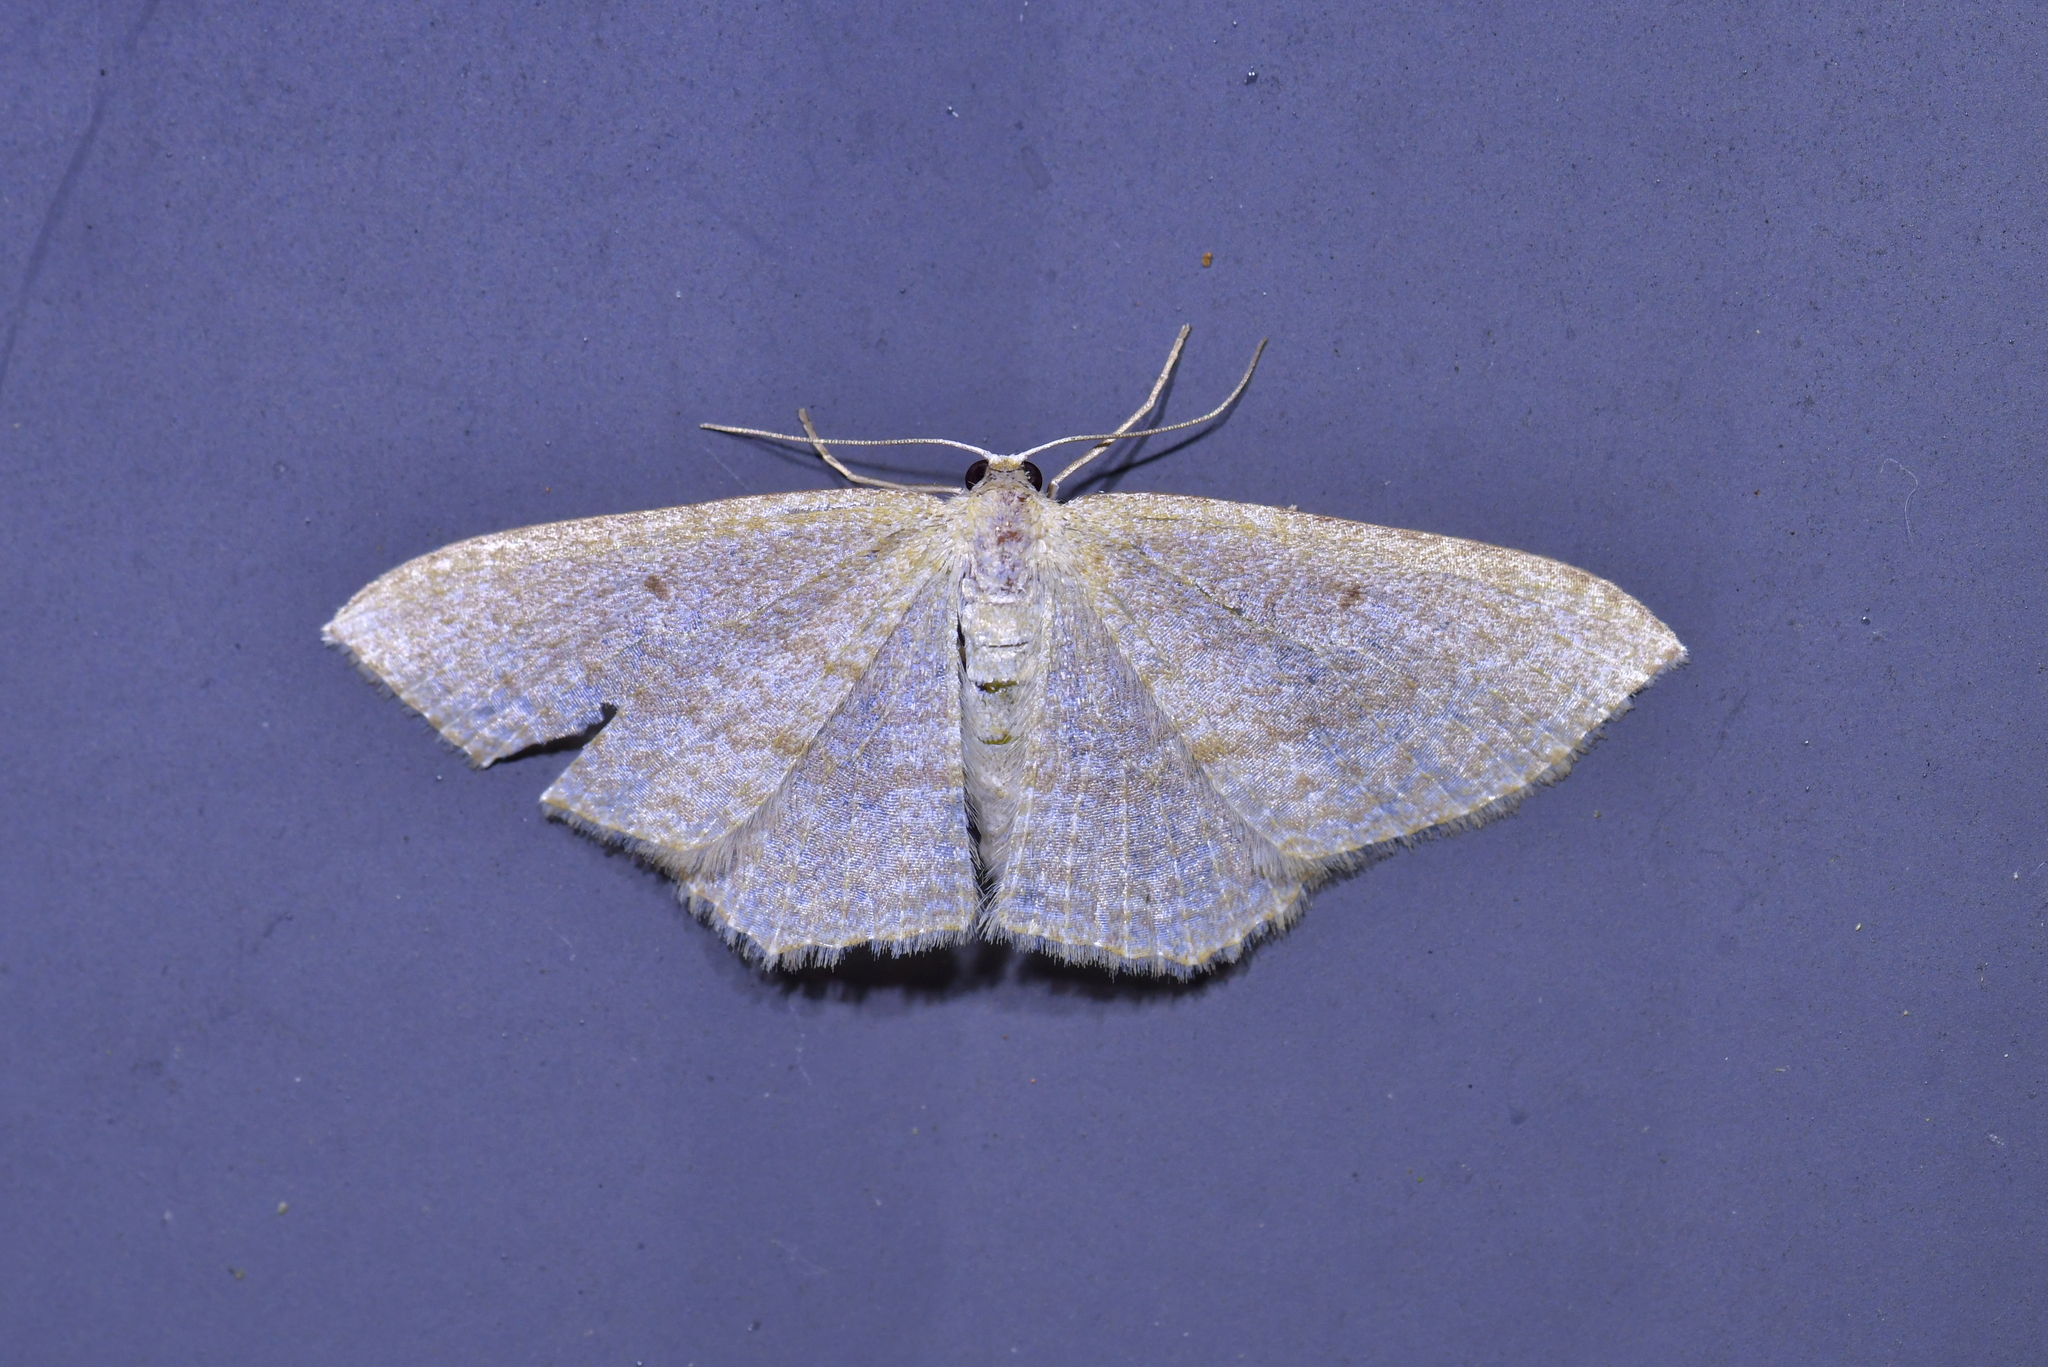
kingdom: Animalia
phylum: Arthropoda
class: Insecta
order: Lepidoptera
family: Geometridae
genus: Poecilasthena
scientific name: Poecilasthena pulchraria
